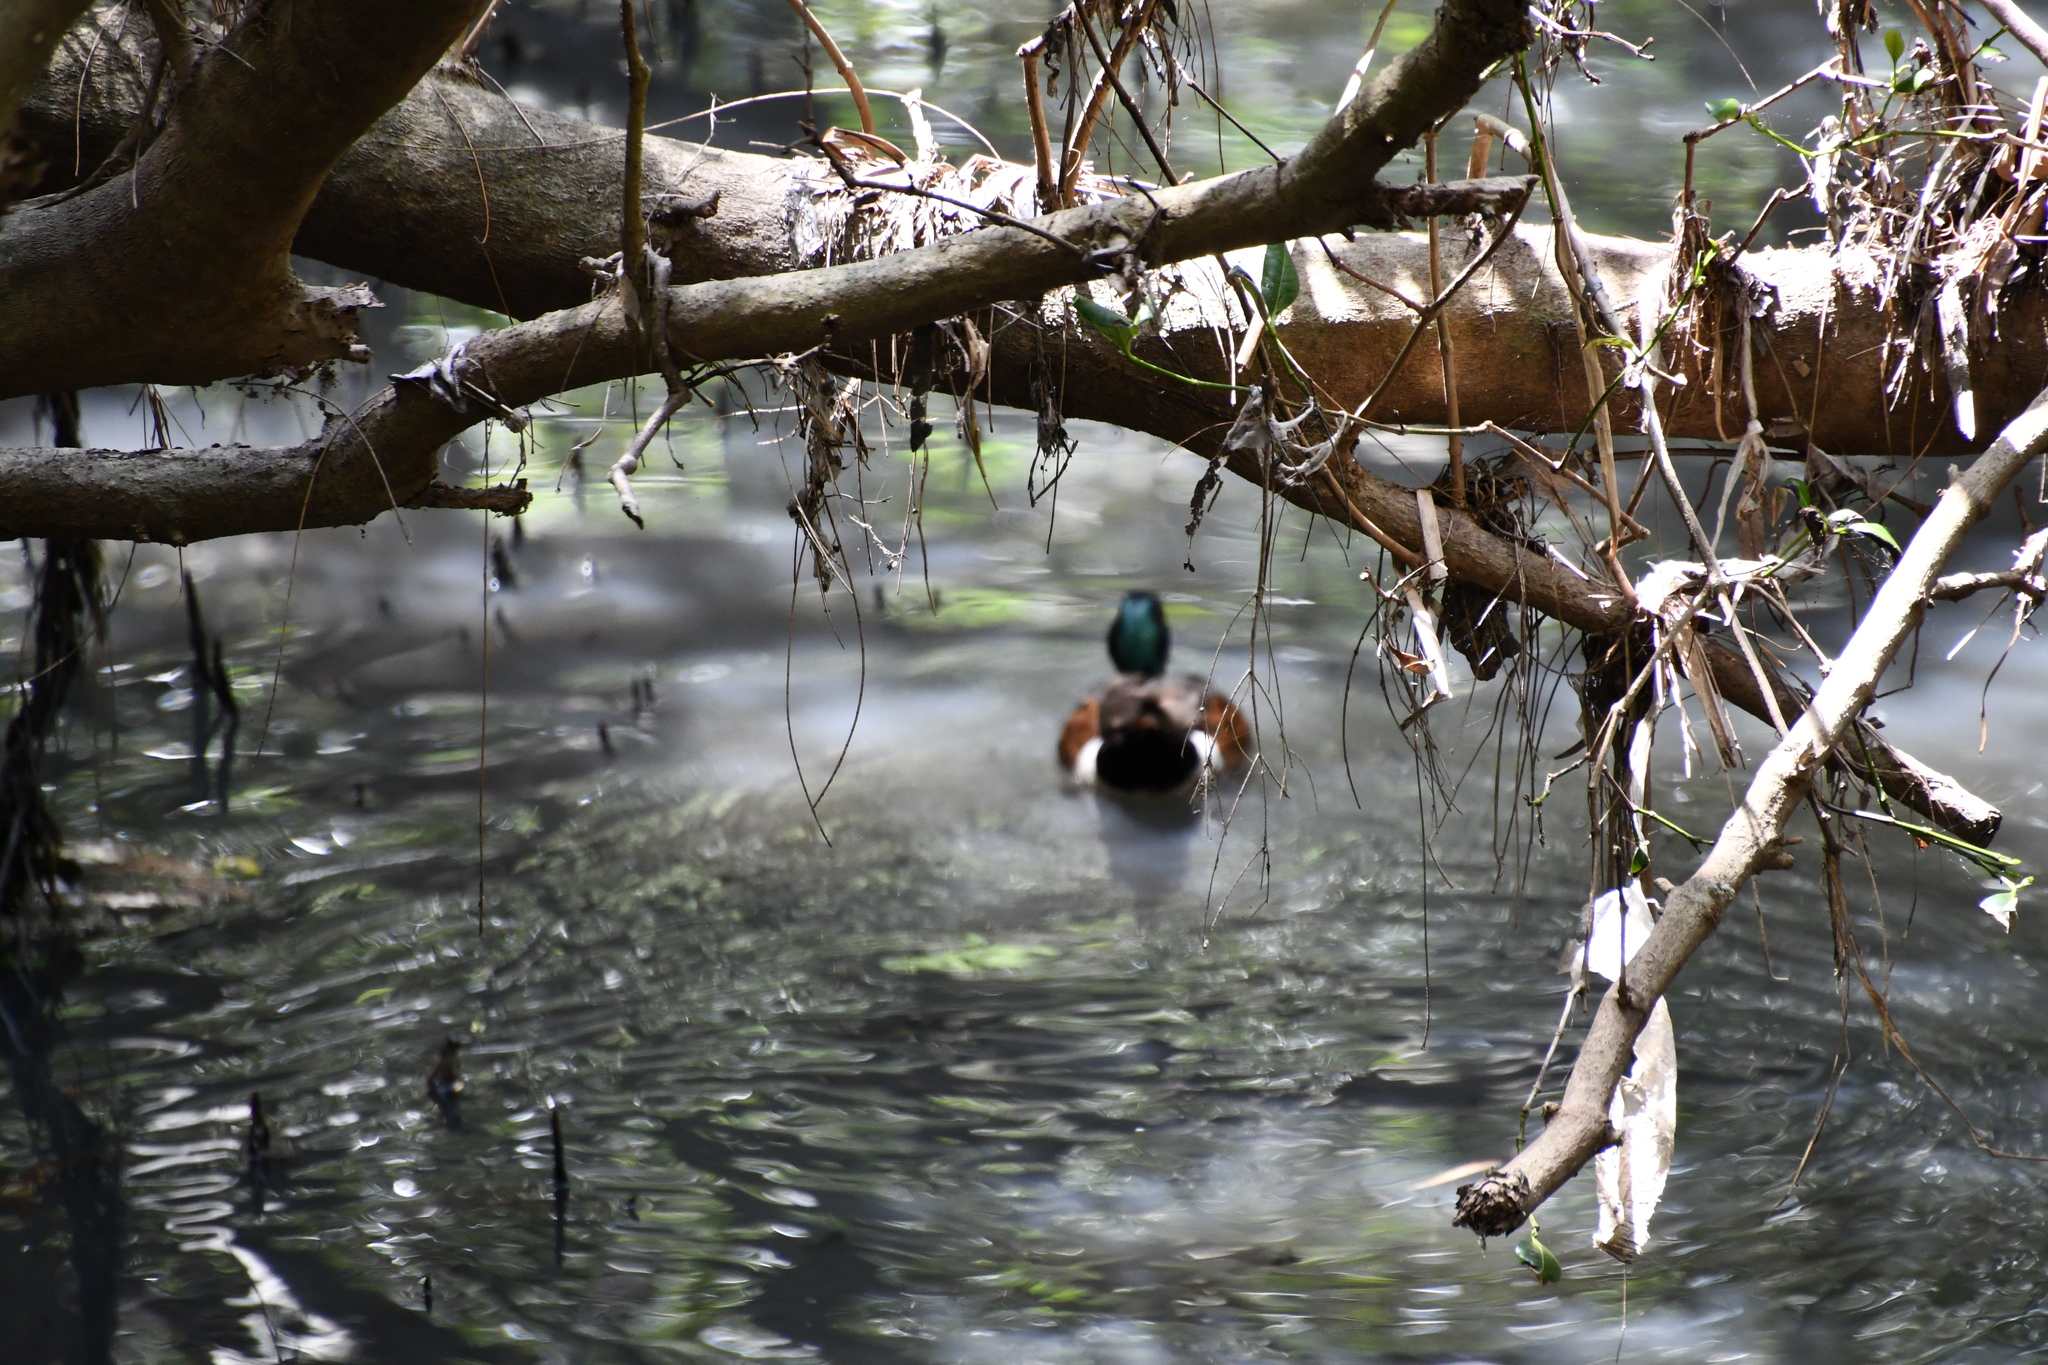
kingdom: Animalia
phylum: Chordata
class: Aves
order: Anseriformes
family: Anatidae
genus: Anas
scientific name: Anas castanea
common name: Chestnut teal
